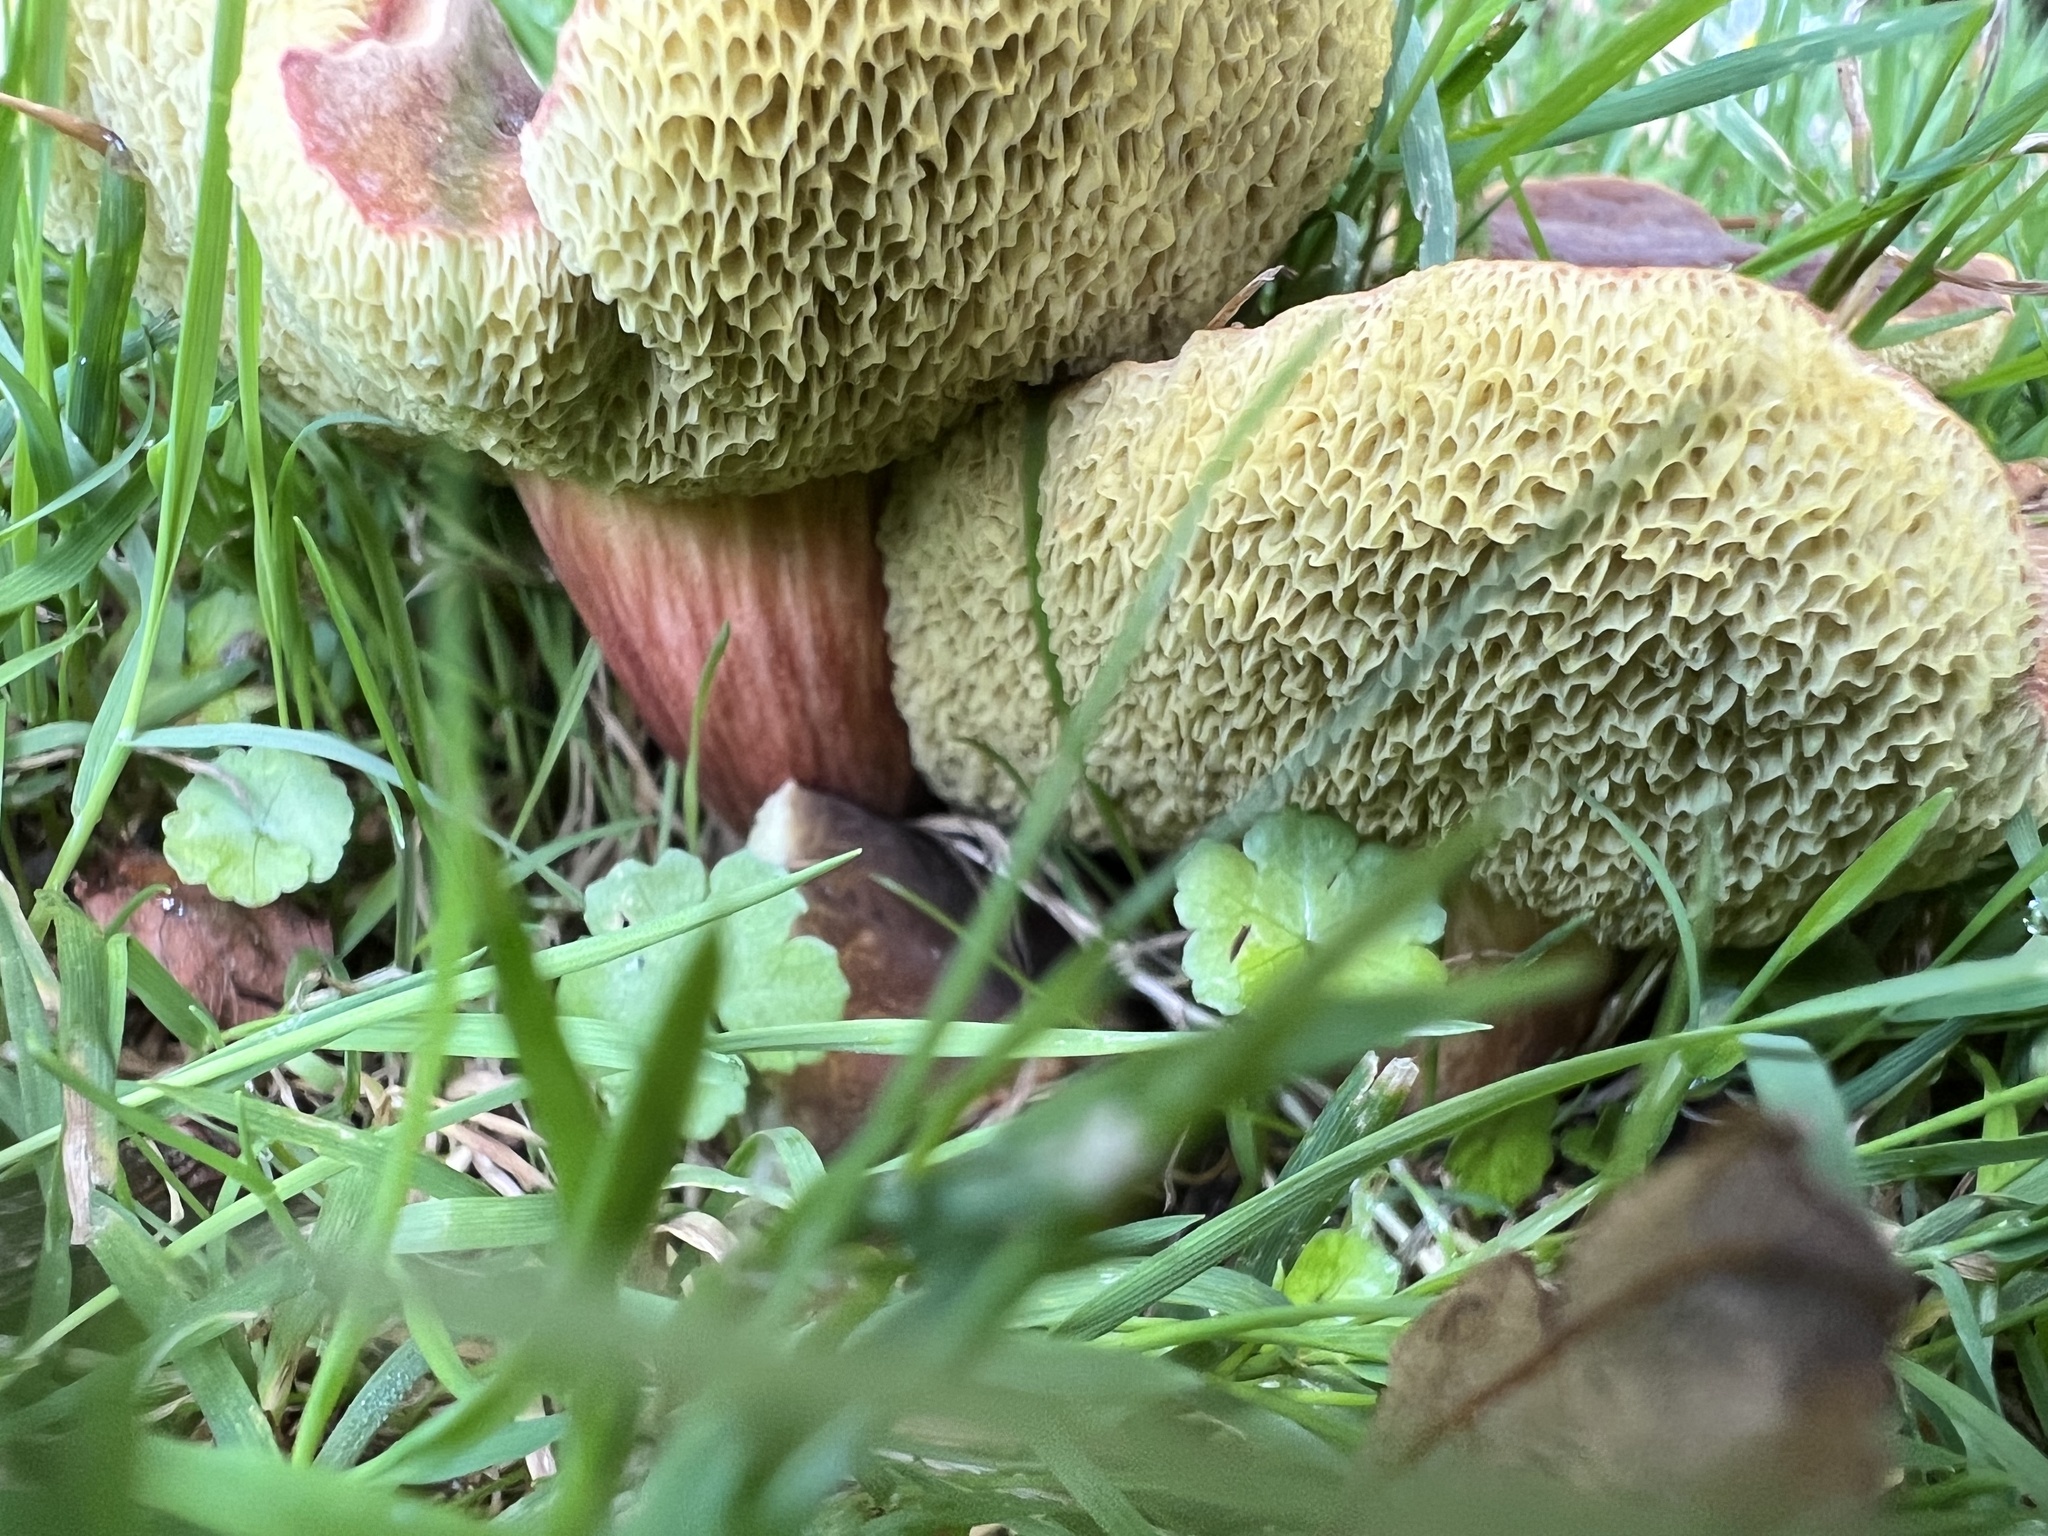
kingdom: Fungi
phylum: Basidiomycota
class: Agaricomycetes
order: Boletales
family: Boletaceae
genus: Hortiboletus
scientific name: Hortiboletus bubalinus
